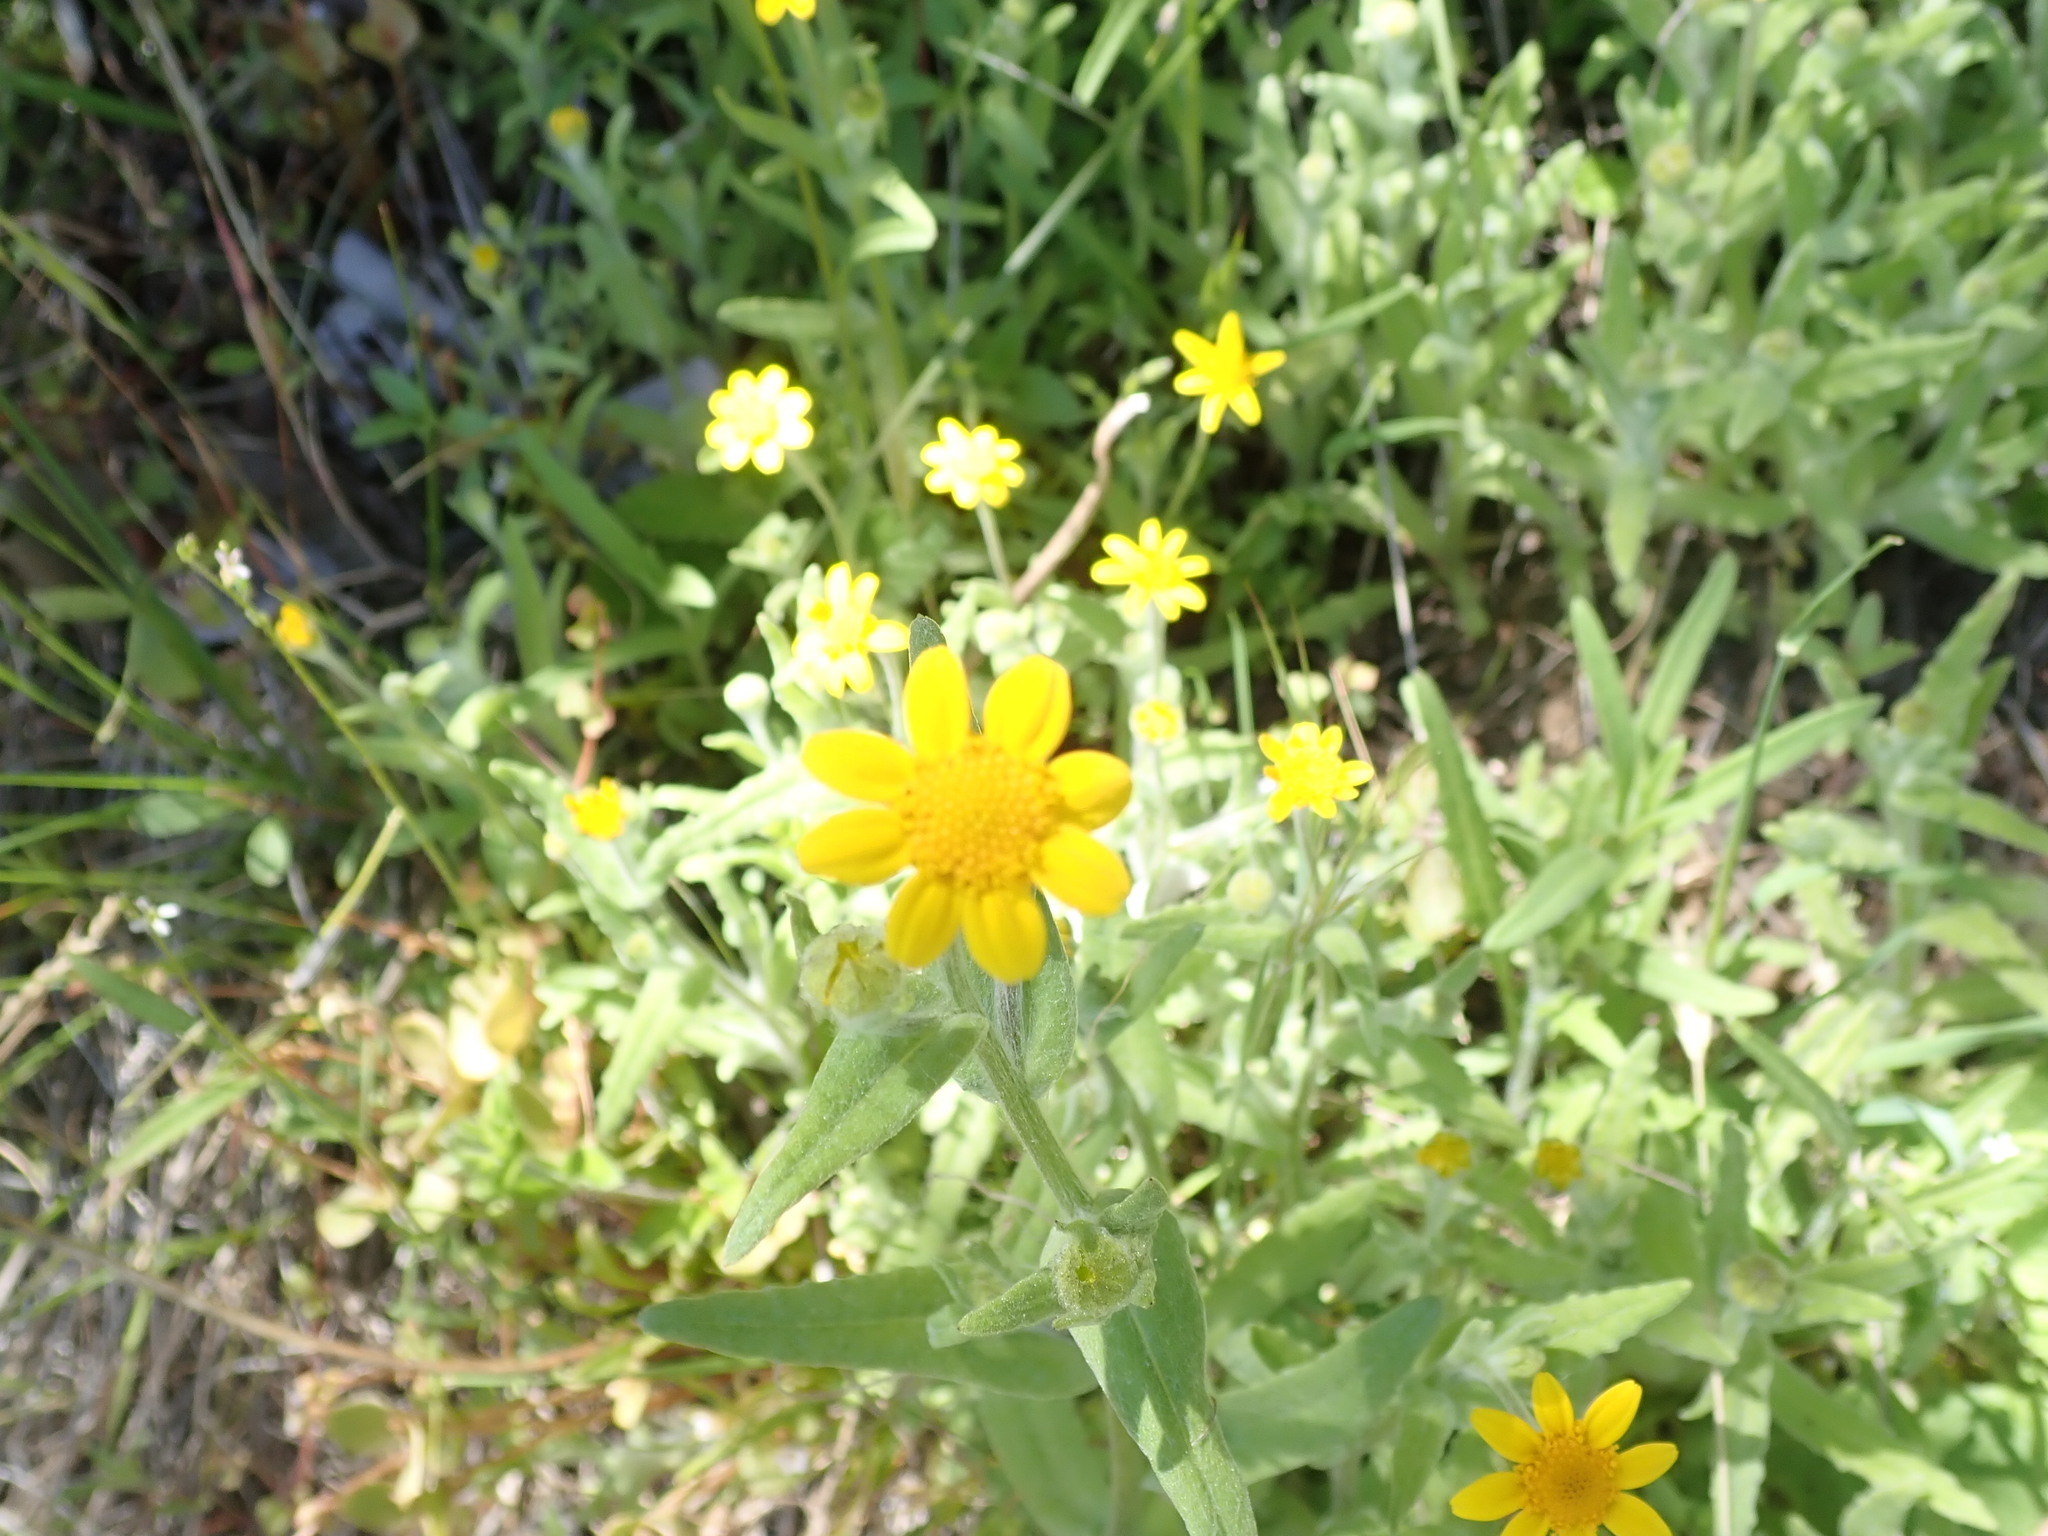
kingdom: Plantae
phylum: Tracheophyta
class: Magnoliopsida
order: Asterales
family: Asteraceae
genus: Monolopia
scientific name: Monolopia gracilens
